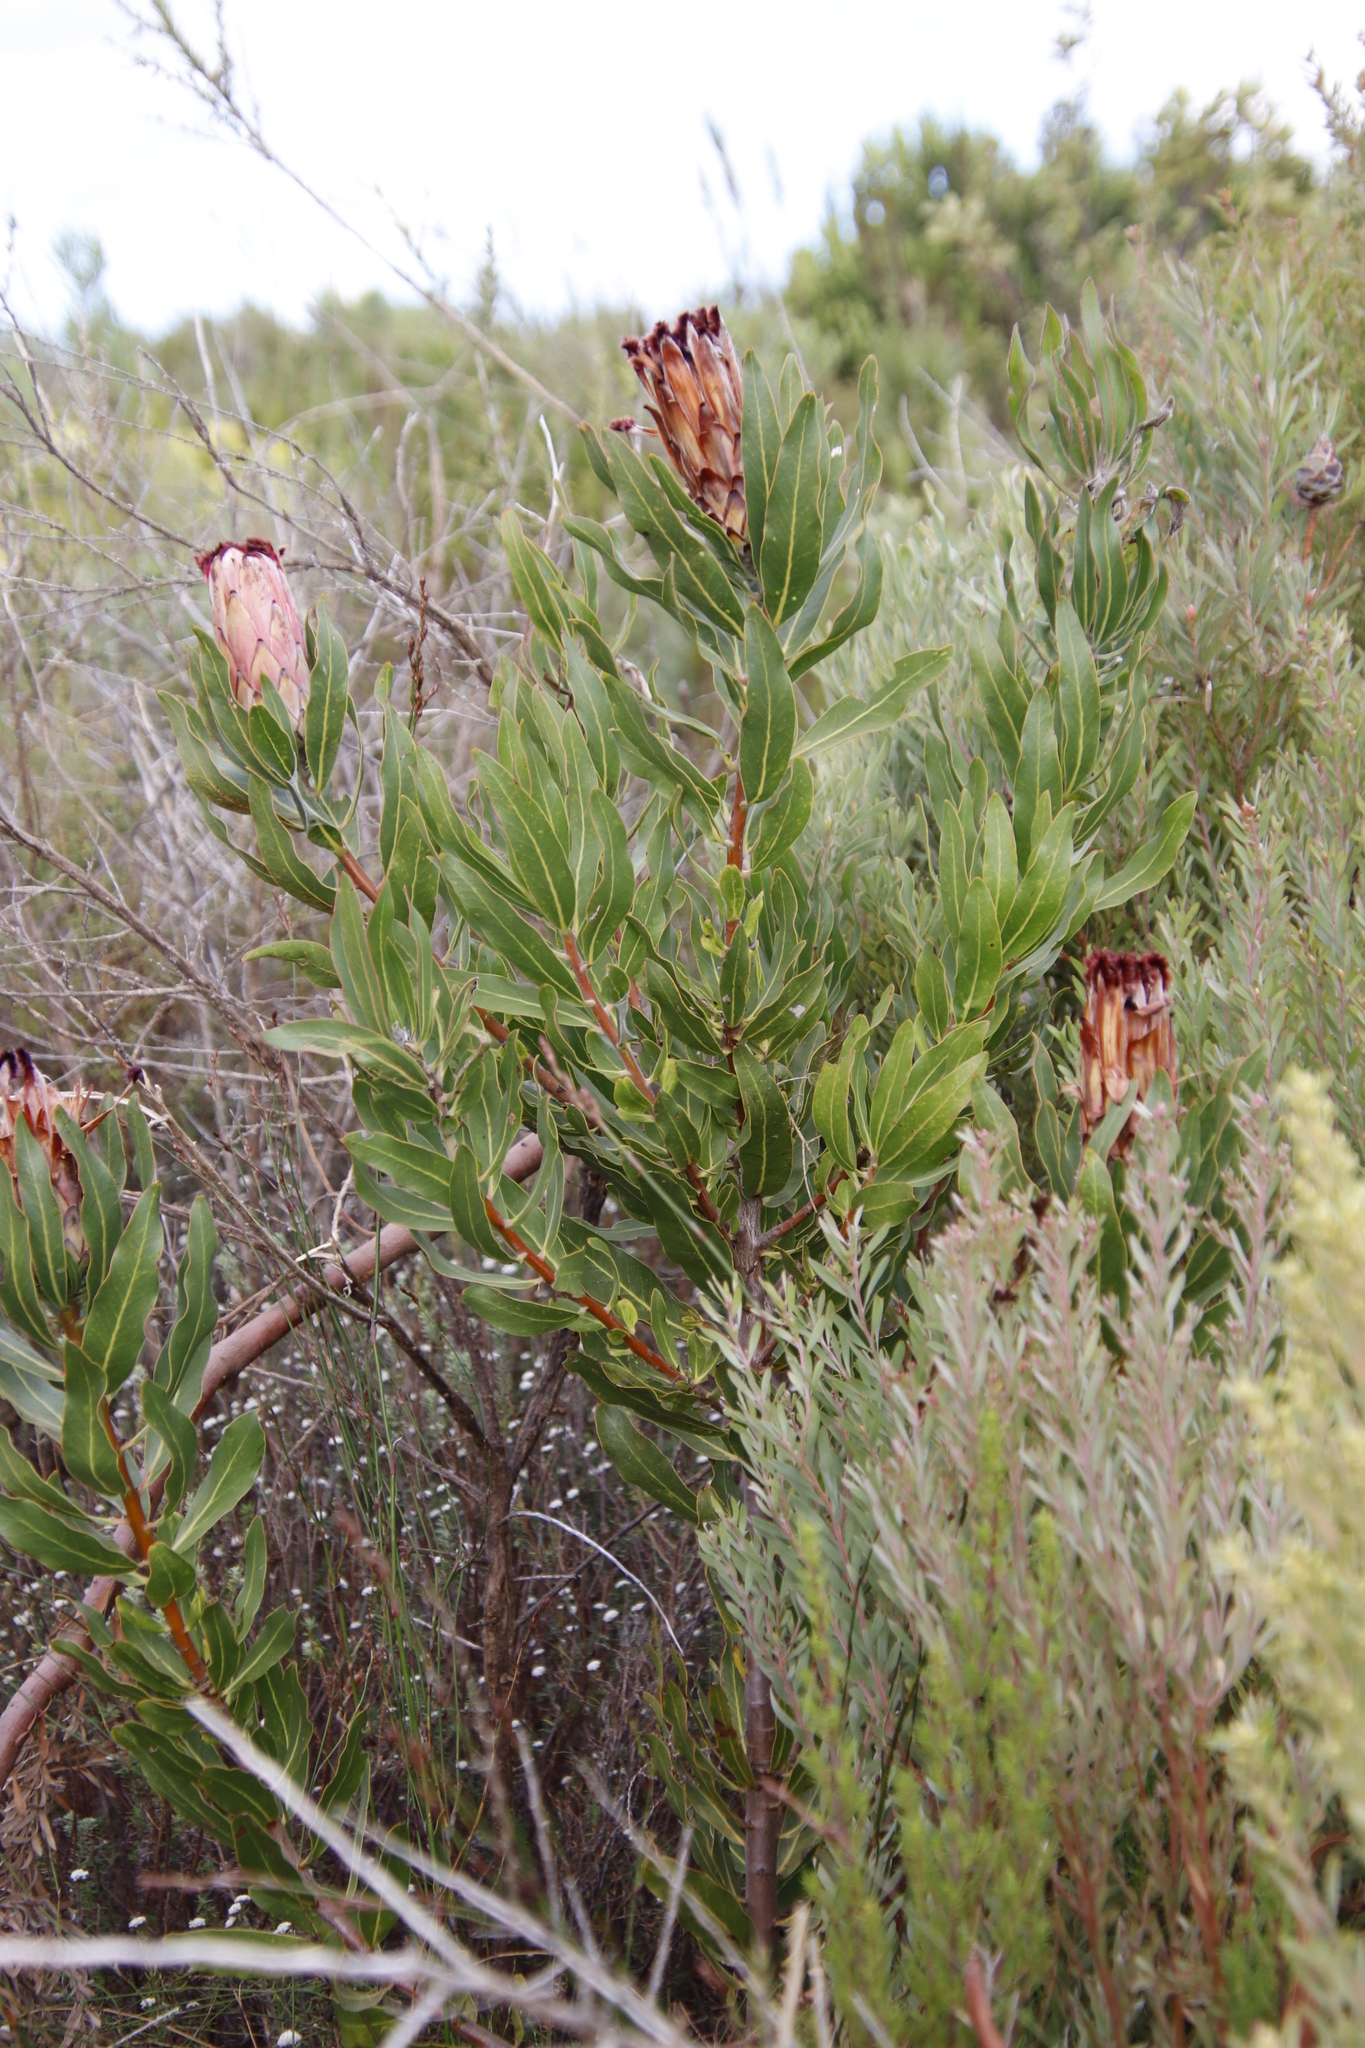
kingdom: Plantae
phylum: Tracheophyta
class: Magnoliopsida
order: Proteales
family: Proteaceae
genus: Protea
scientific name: Protea laurifolia
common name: Grey-leaf sugarbsh
